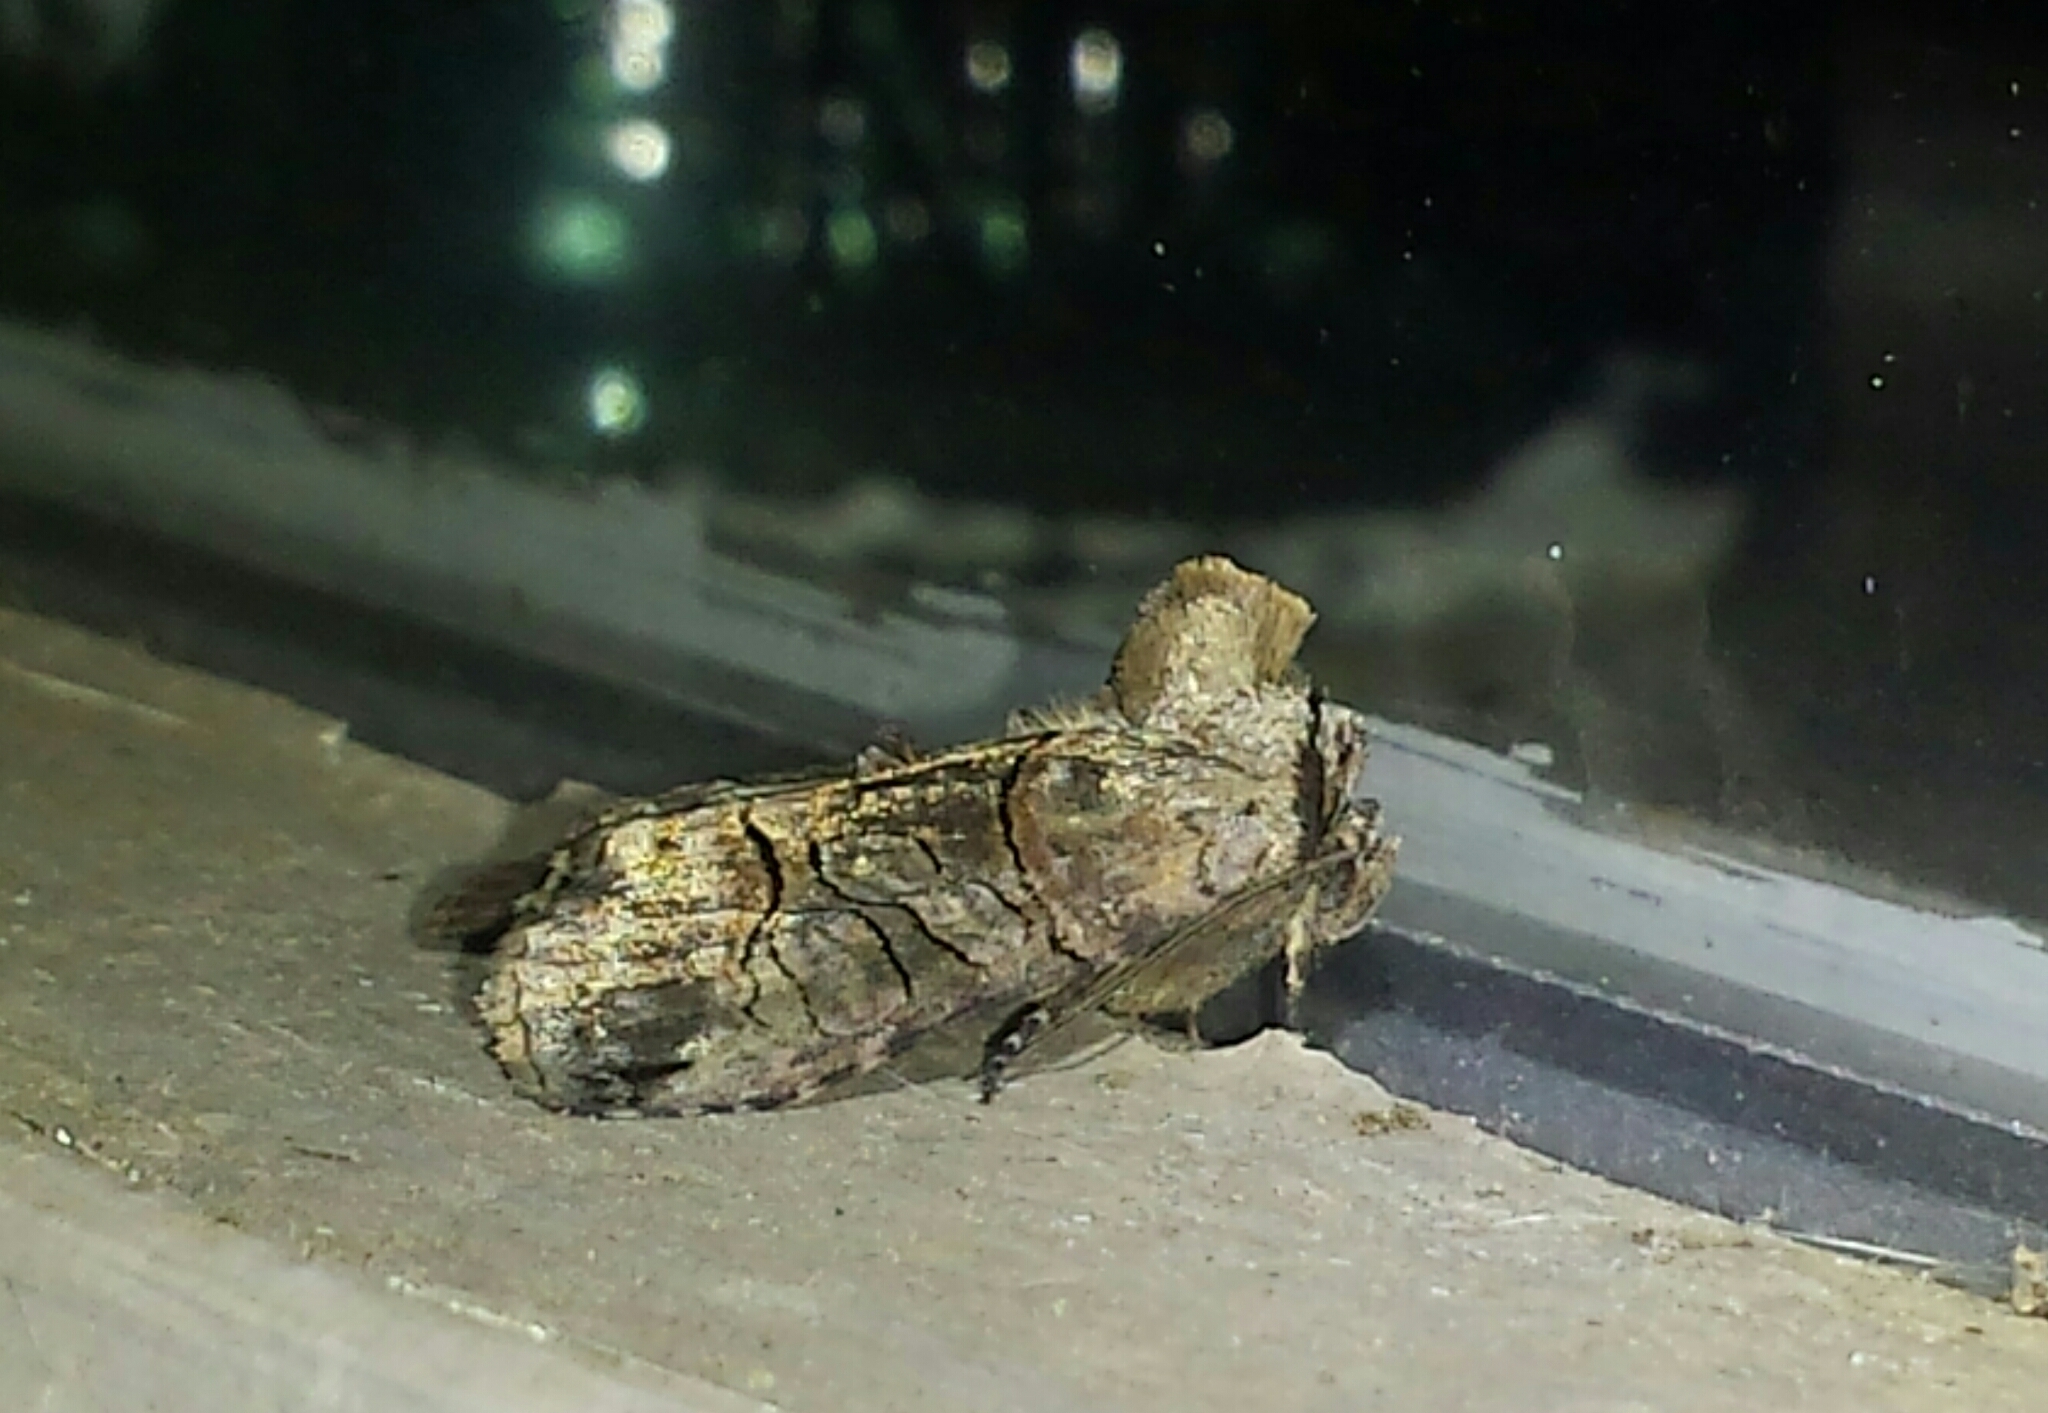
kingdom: Animalia
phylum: Arthropoda
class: Insecta
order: Lepidoptera
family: Noctuidae
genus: Abrostola
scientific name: Abrostola urentis
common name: Spectacled nettle moth
